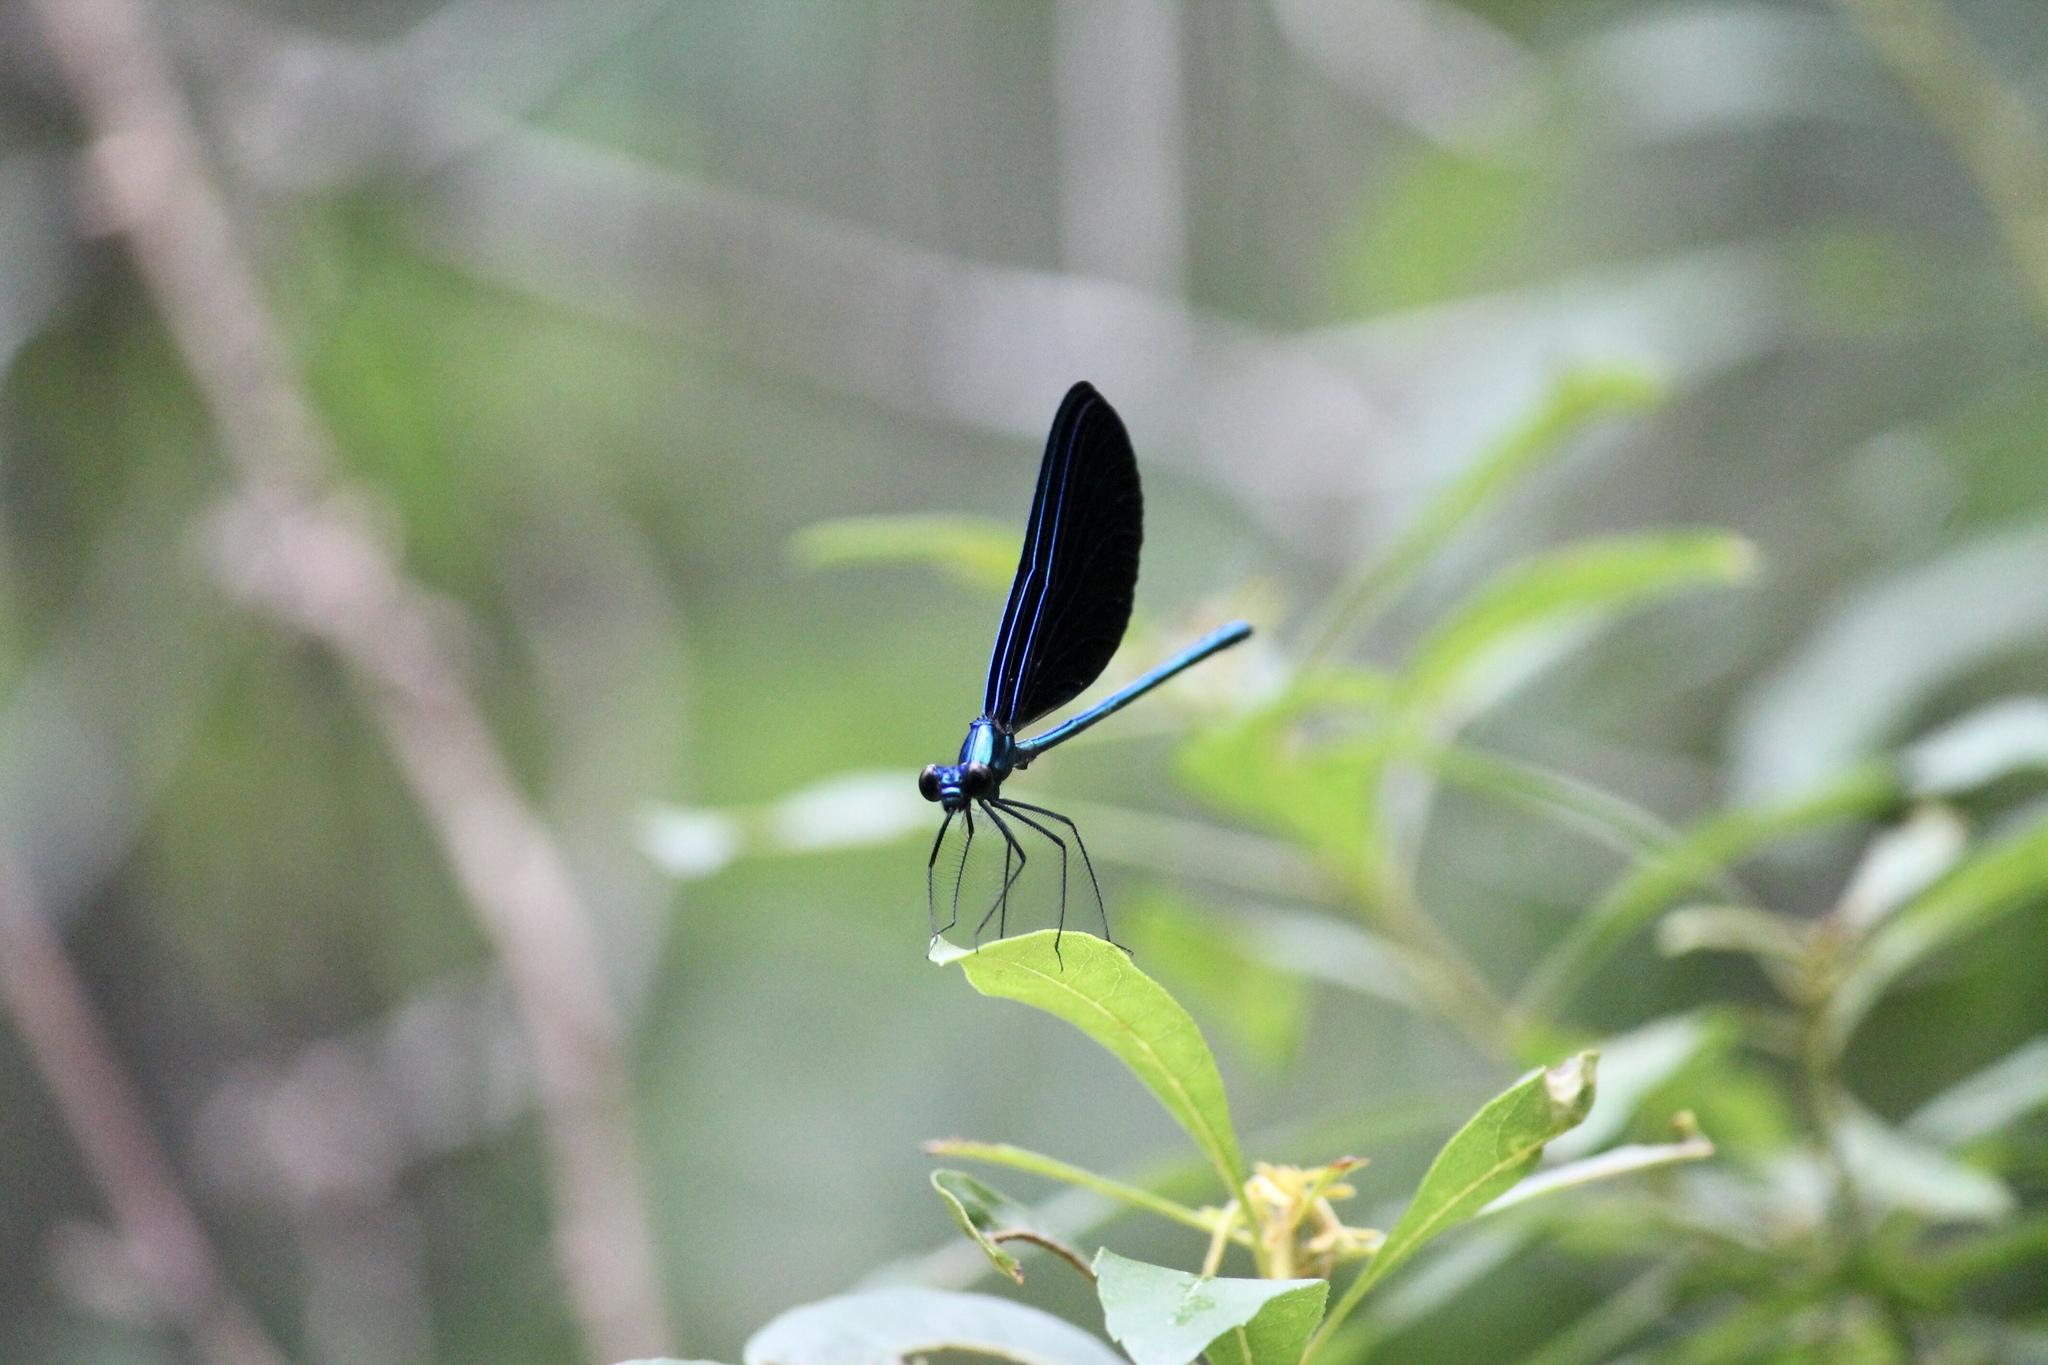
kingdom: Animalia
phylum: Arthropoda
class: Insecta
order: Odonata
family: Calopterygidae
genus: Calopteryx
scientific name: Calopteryx maculata
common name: Ebony jewelwing
